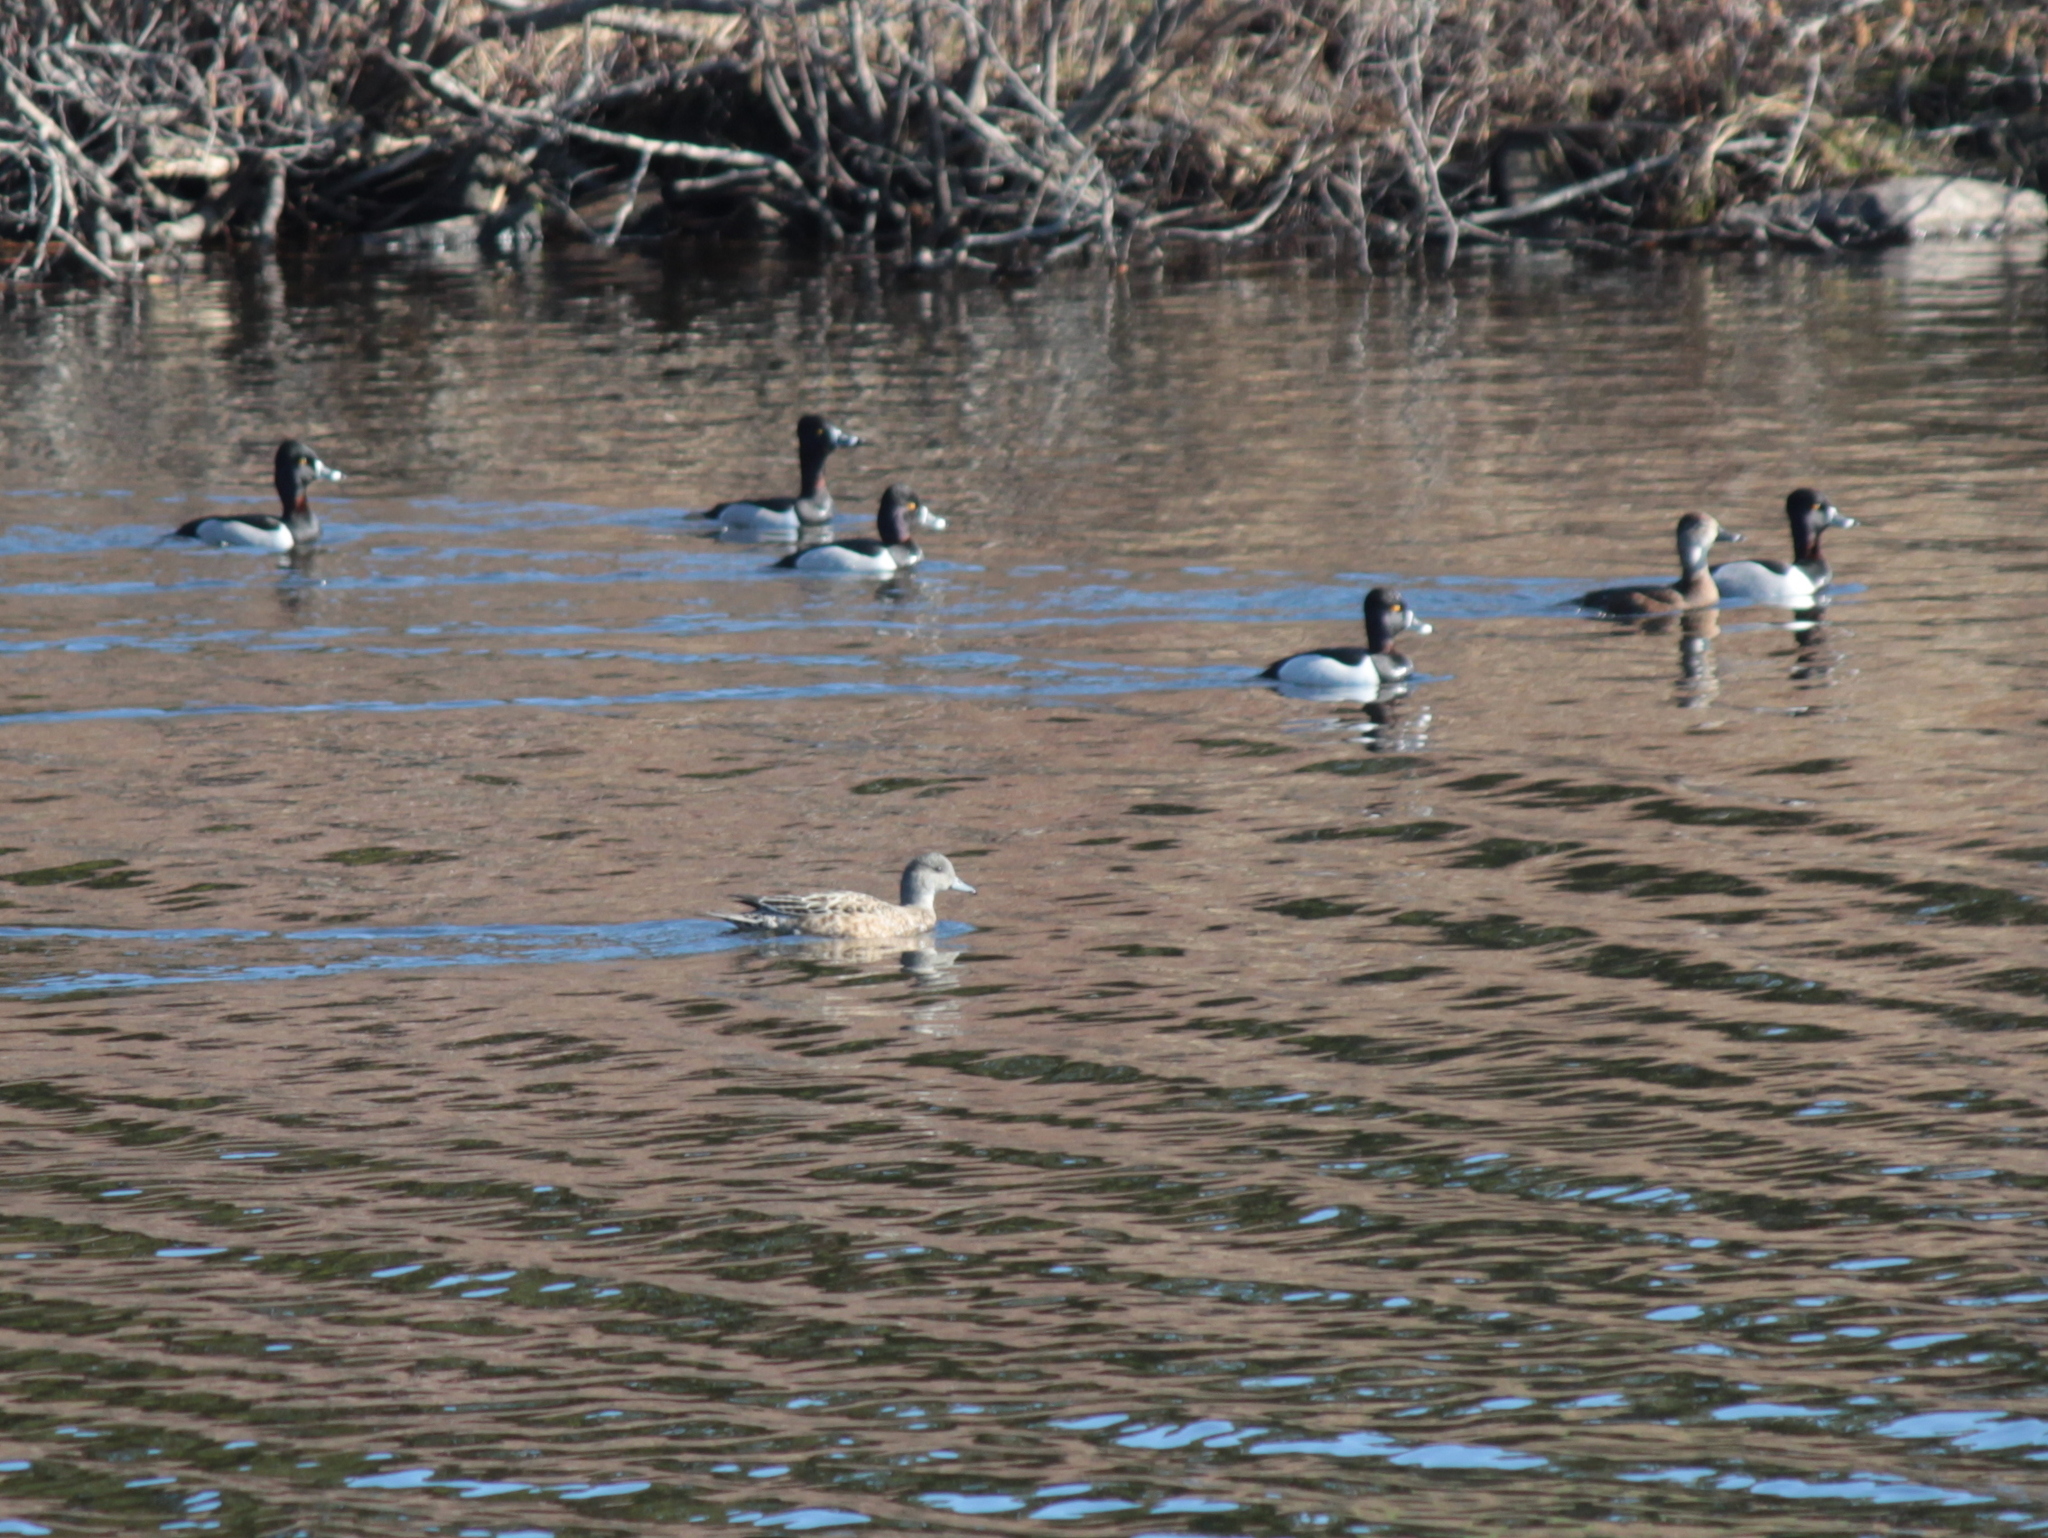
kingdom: Animalia
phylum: Chordata
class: Aves
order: Anseriformes
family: Anatidae
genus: Aythya
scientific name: Aythya collaris
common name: Ring-necked duck
